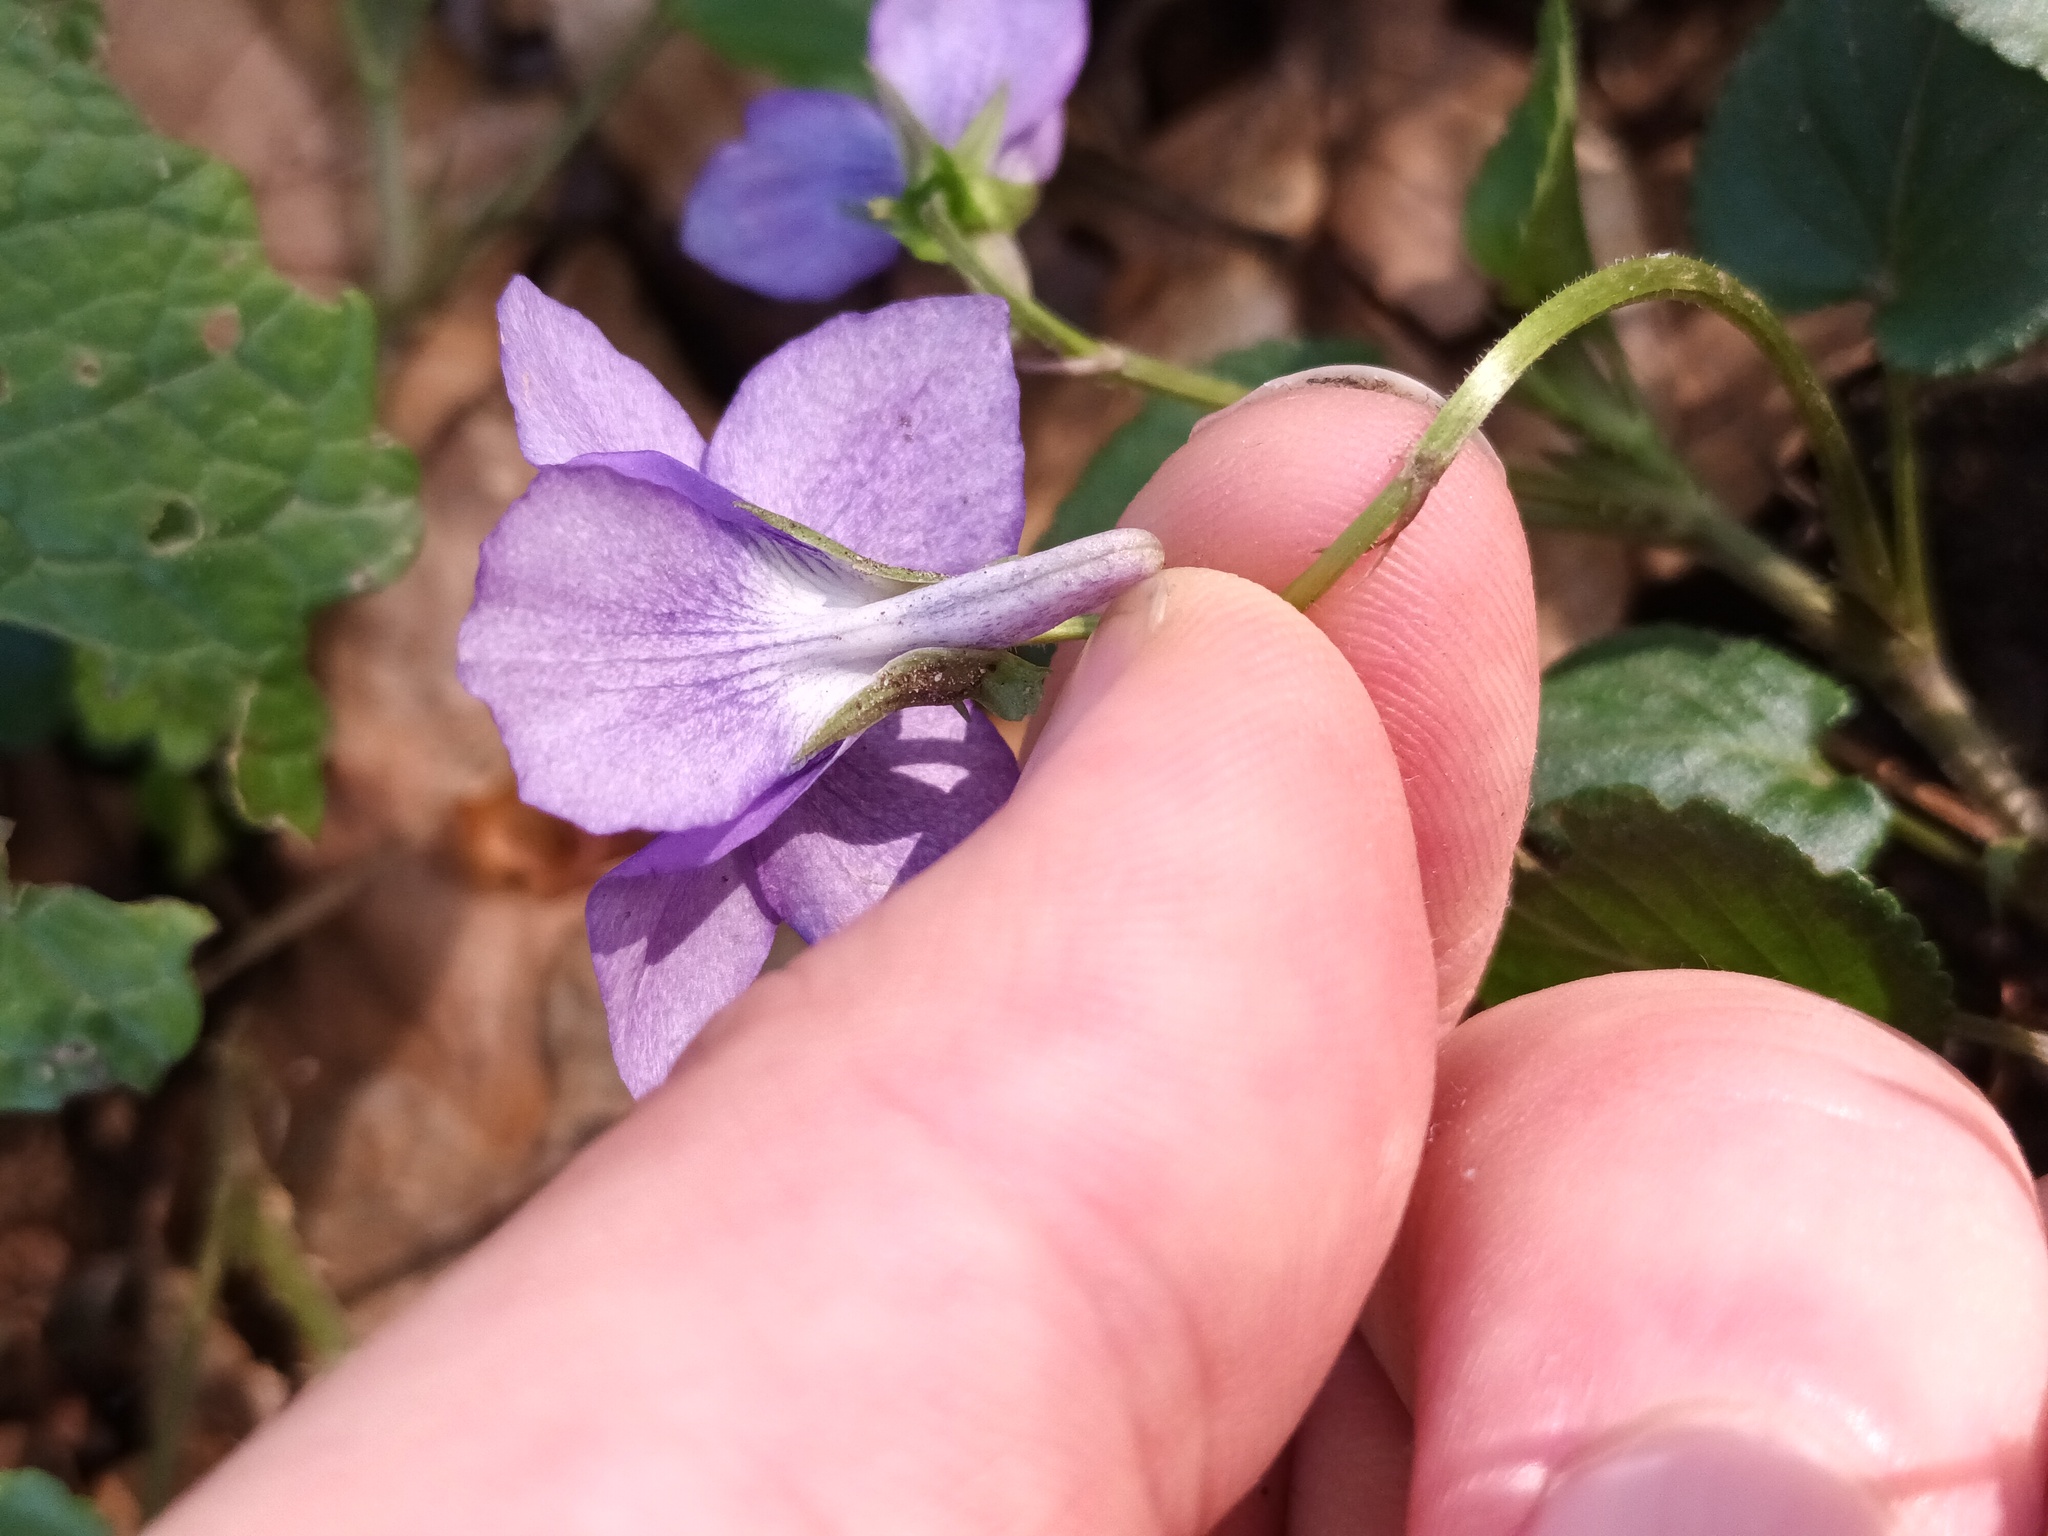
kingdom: Plantae
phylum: Tracheophyta
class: Magnoliopsida
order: Malpighiales
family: Violaceae
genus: Viola
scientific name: Viola bavarica
